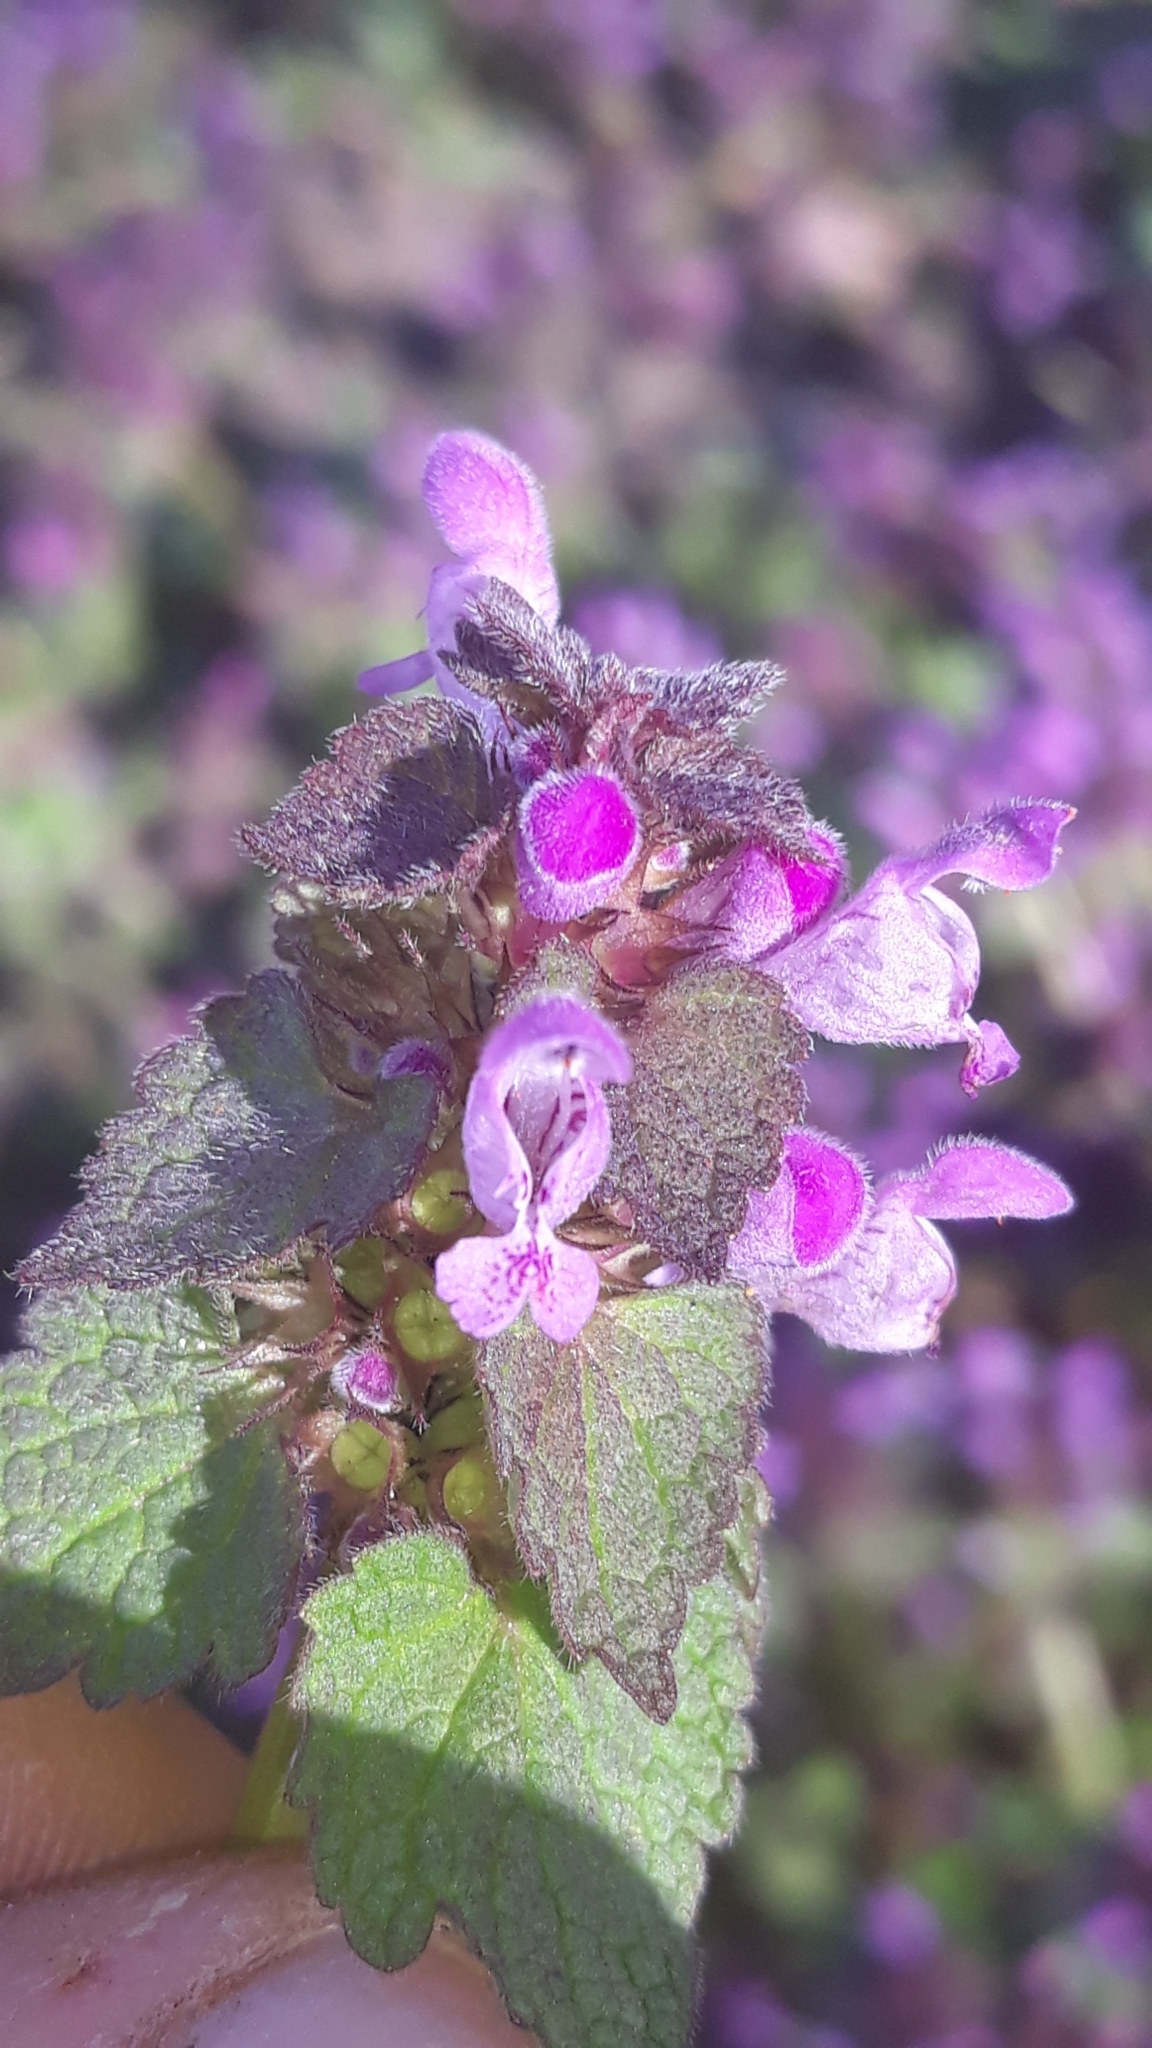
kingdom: Plantae
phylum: Tracheophyta
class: Magnoliopsida
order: Lamiales
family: Lamiaceae
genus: Lamium
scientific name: Lamium purpureum
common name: Red dead-nettle
